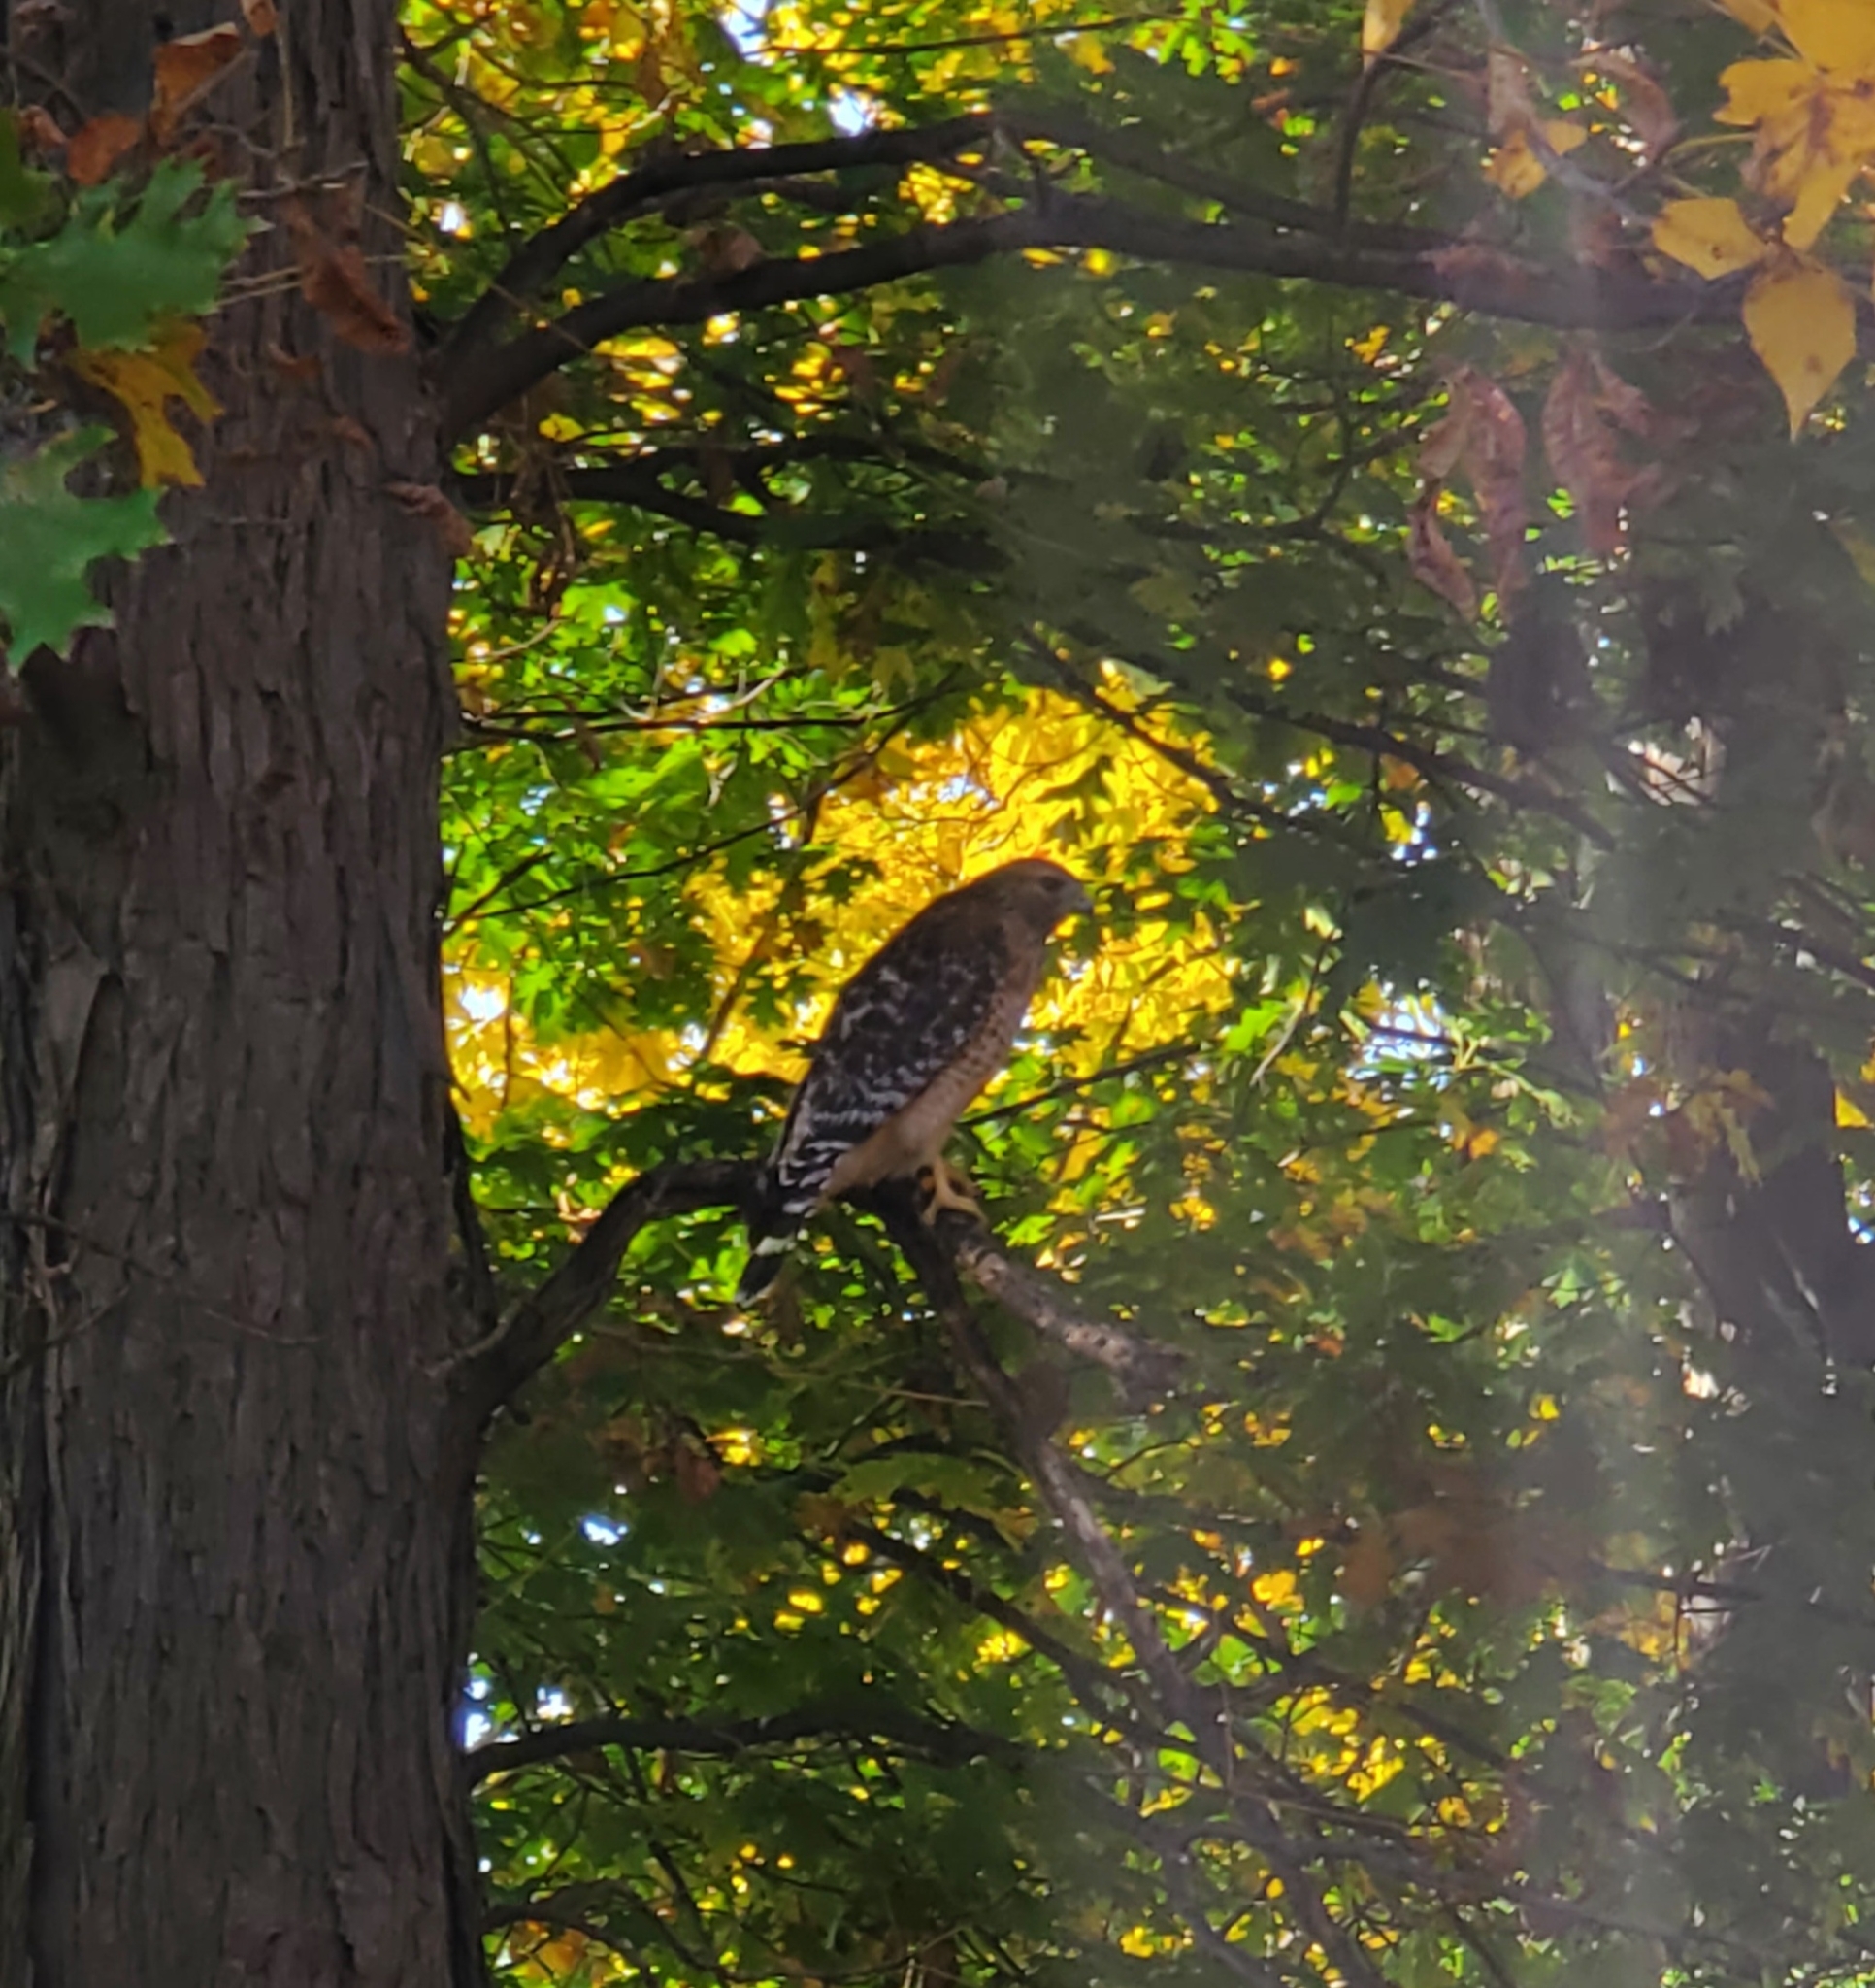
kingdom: Animalia
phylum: Chordata
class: Aves
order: Accipitriformes
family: Accipitridae
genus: Buteo
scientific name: Buteo lineatus
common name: Red-shouldered hawk
